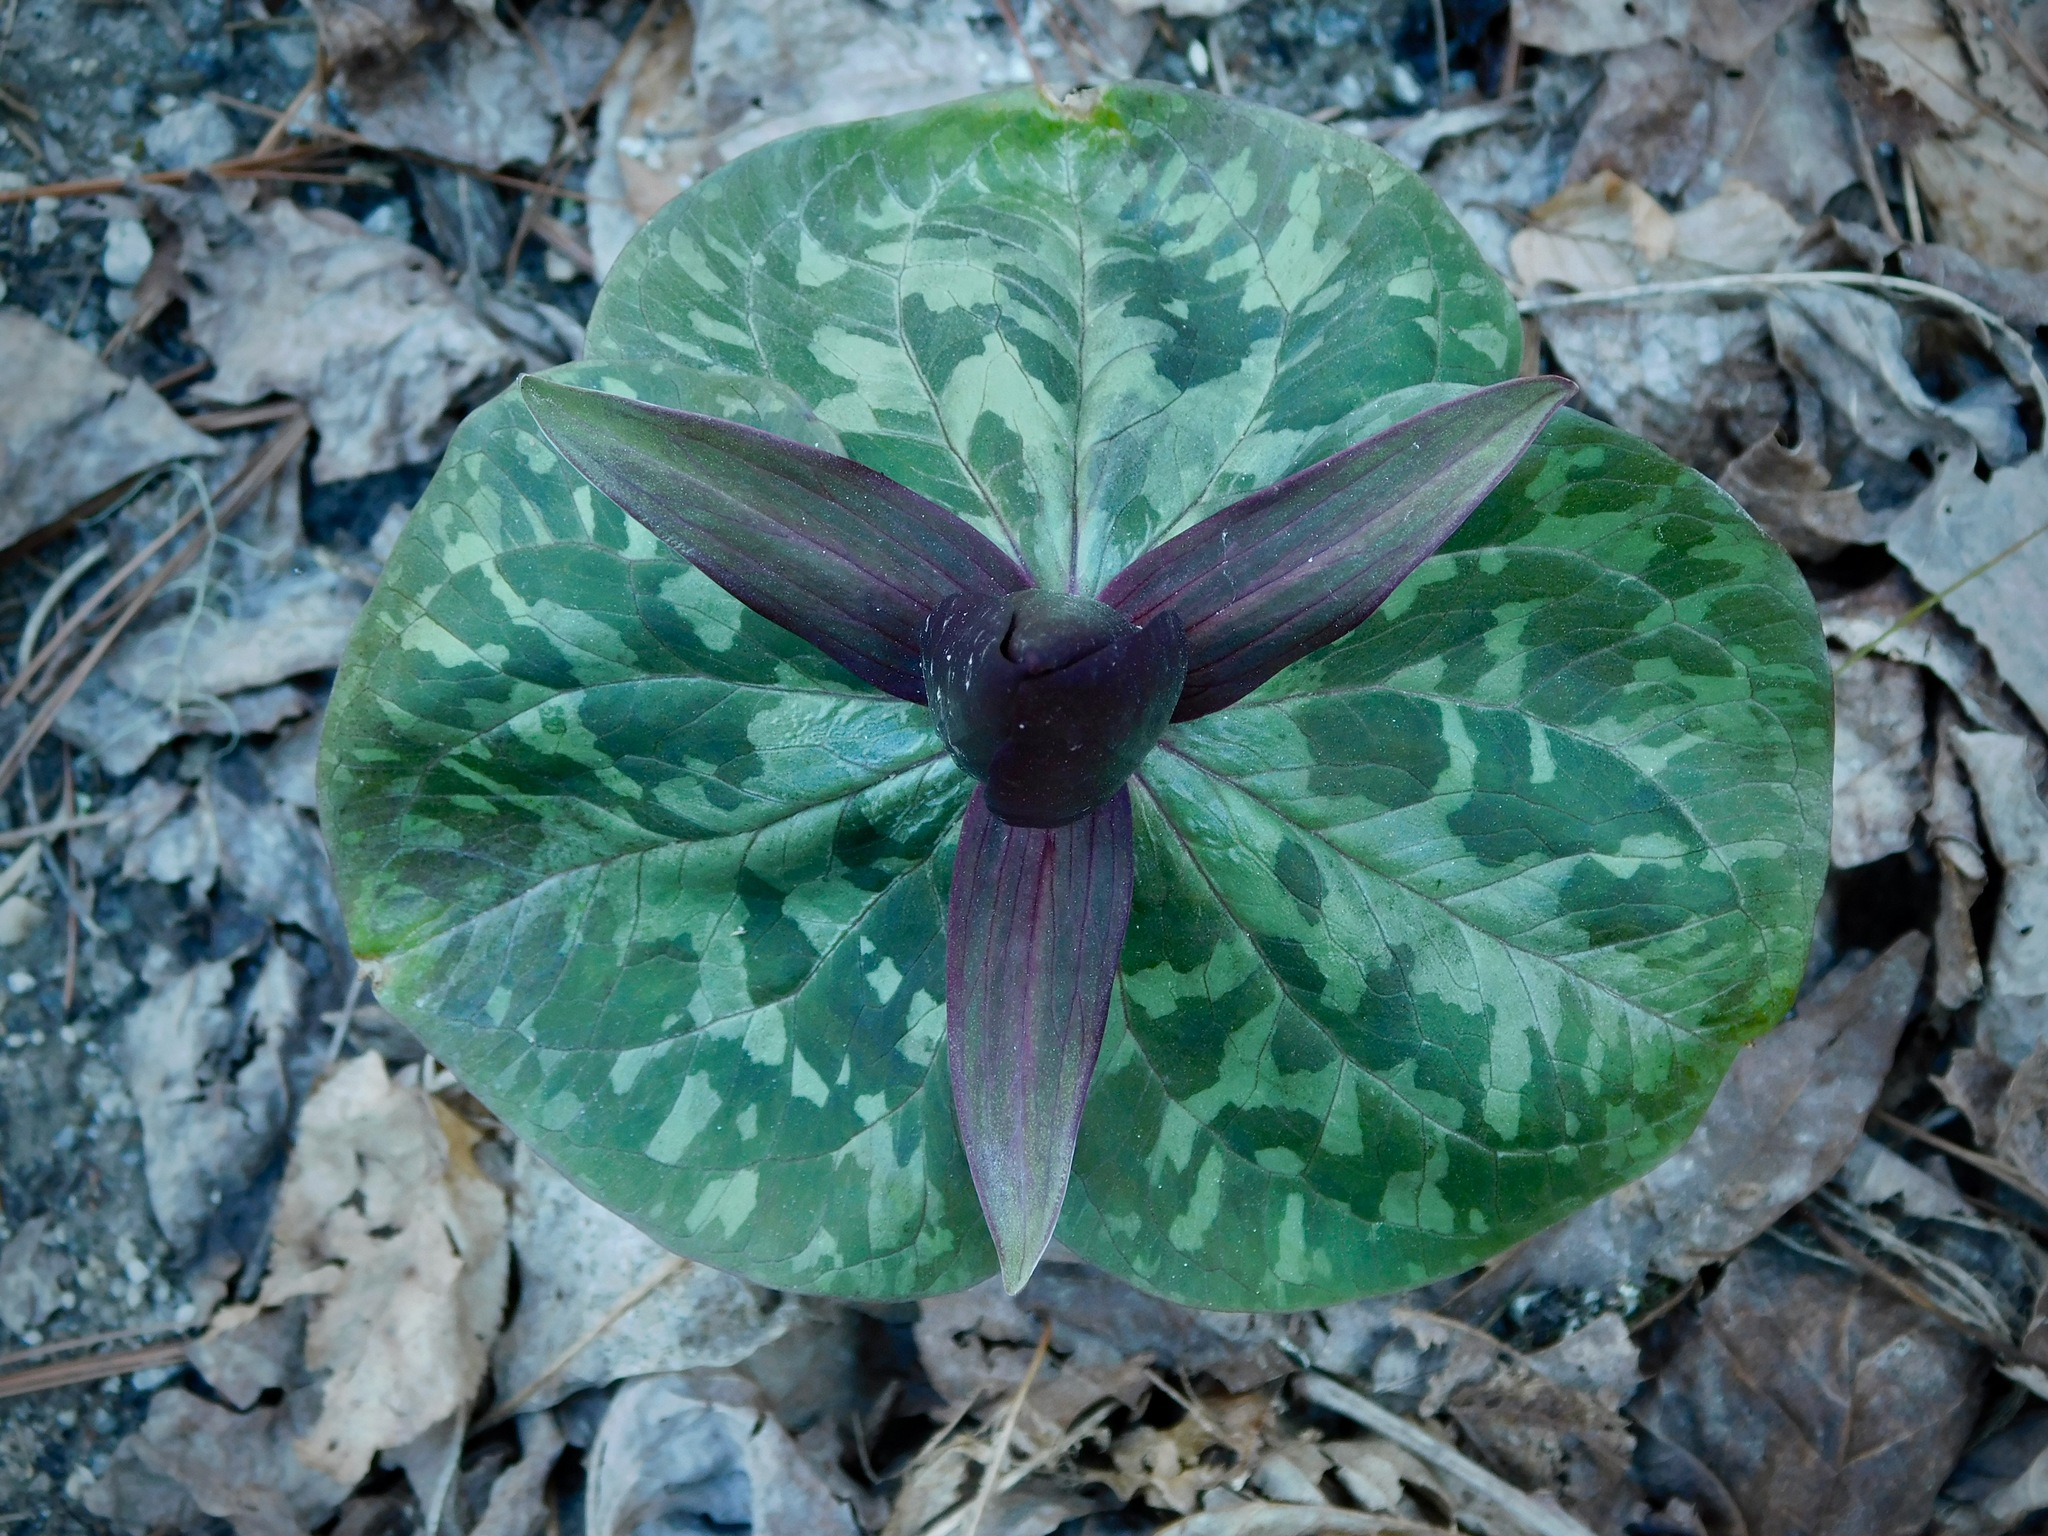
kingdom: Plantae
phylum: Tracheophyta
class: Liliopsida
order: Liliales
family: Melanthiaceae
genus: Trillium
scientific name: Trillium cuneatum
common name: Cuneate trillium
